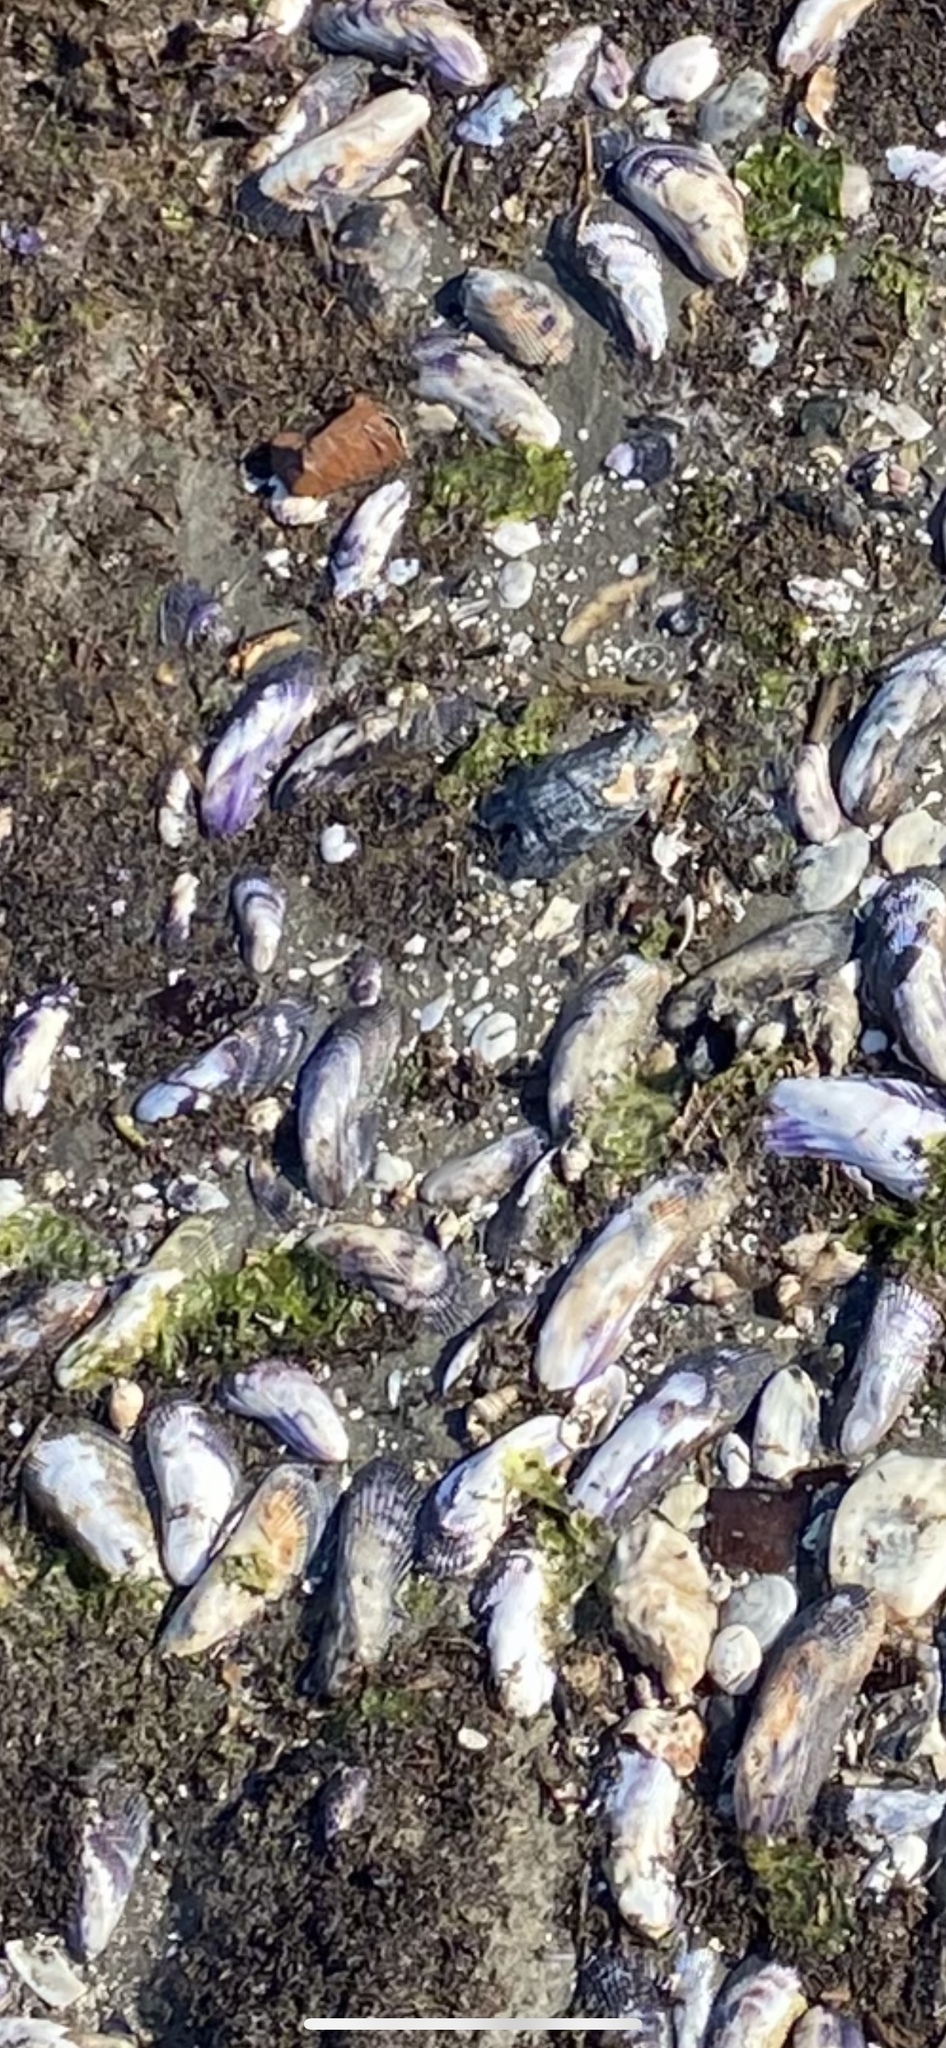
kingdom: Animalia
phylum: Mollusca
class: Bivalvia
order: Mytilida
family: Mytilidae
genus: Geukensia
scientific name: Geukensia demissa
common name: Ribbed mussel
